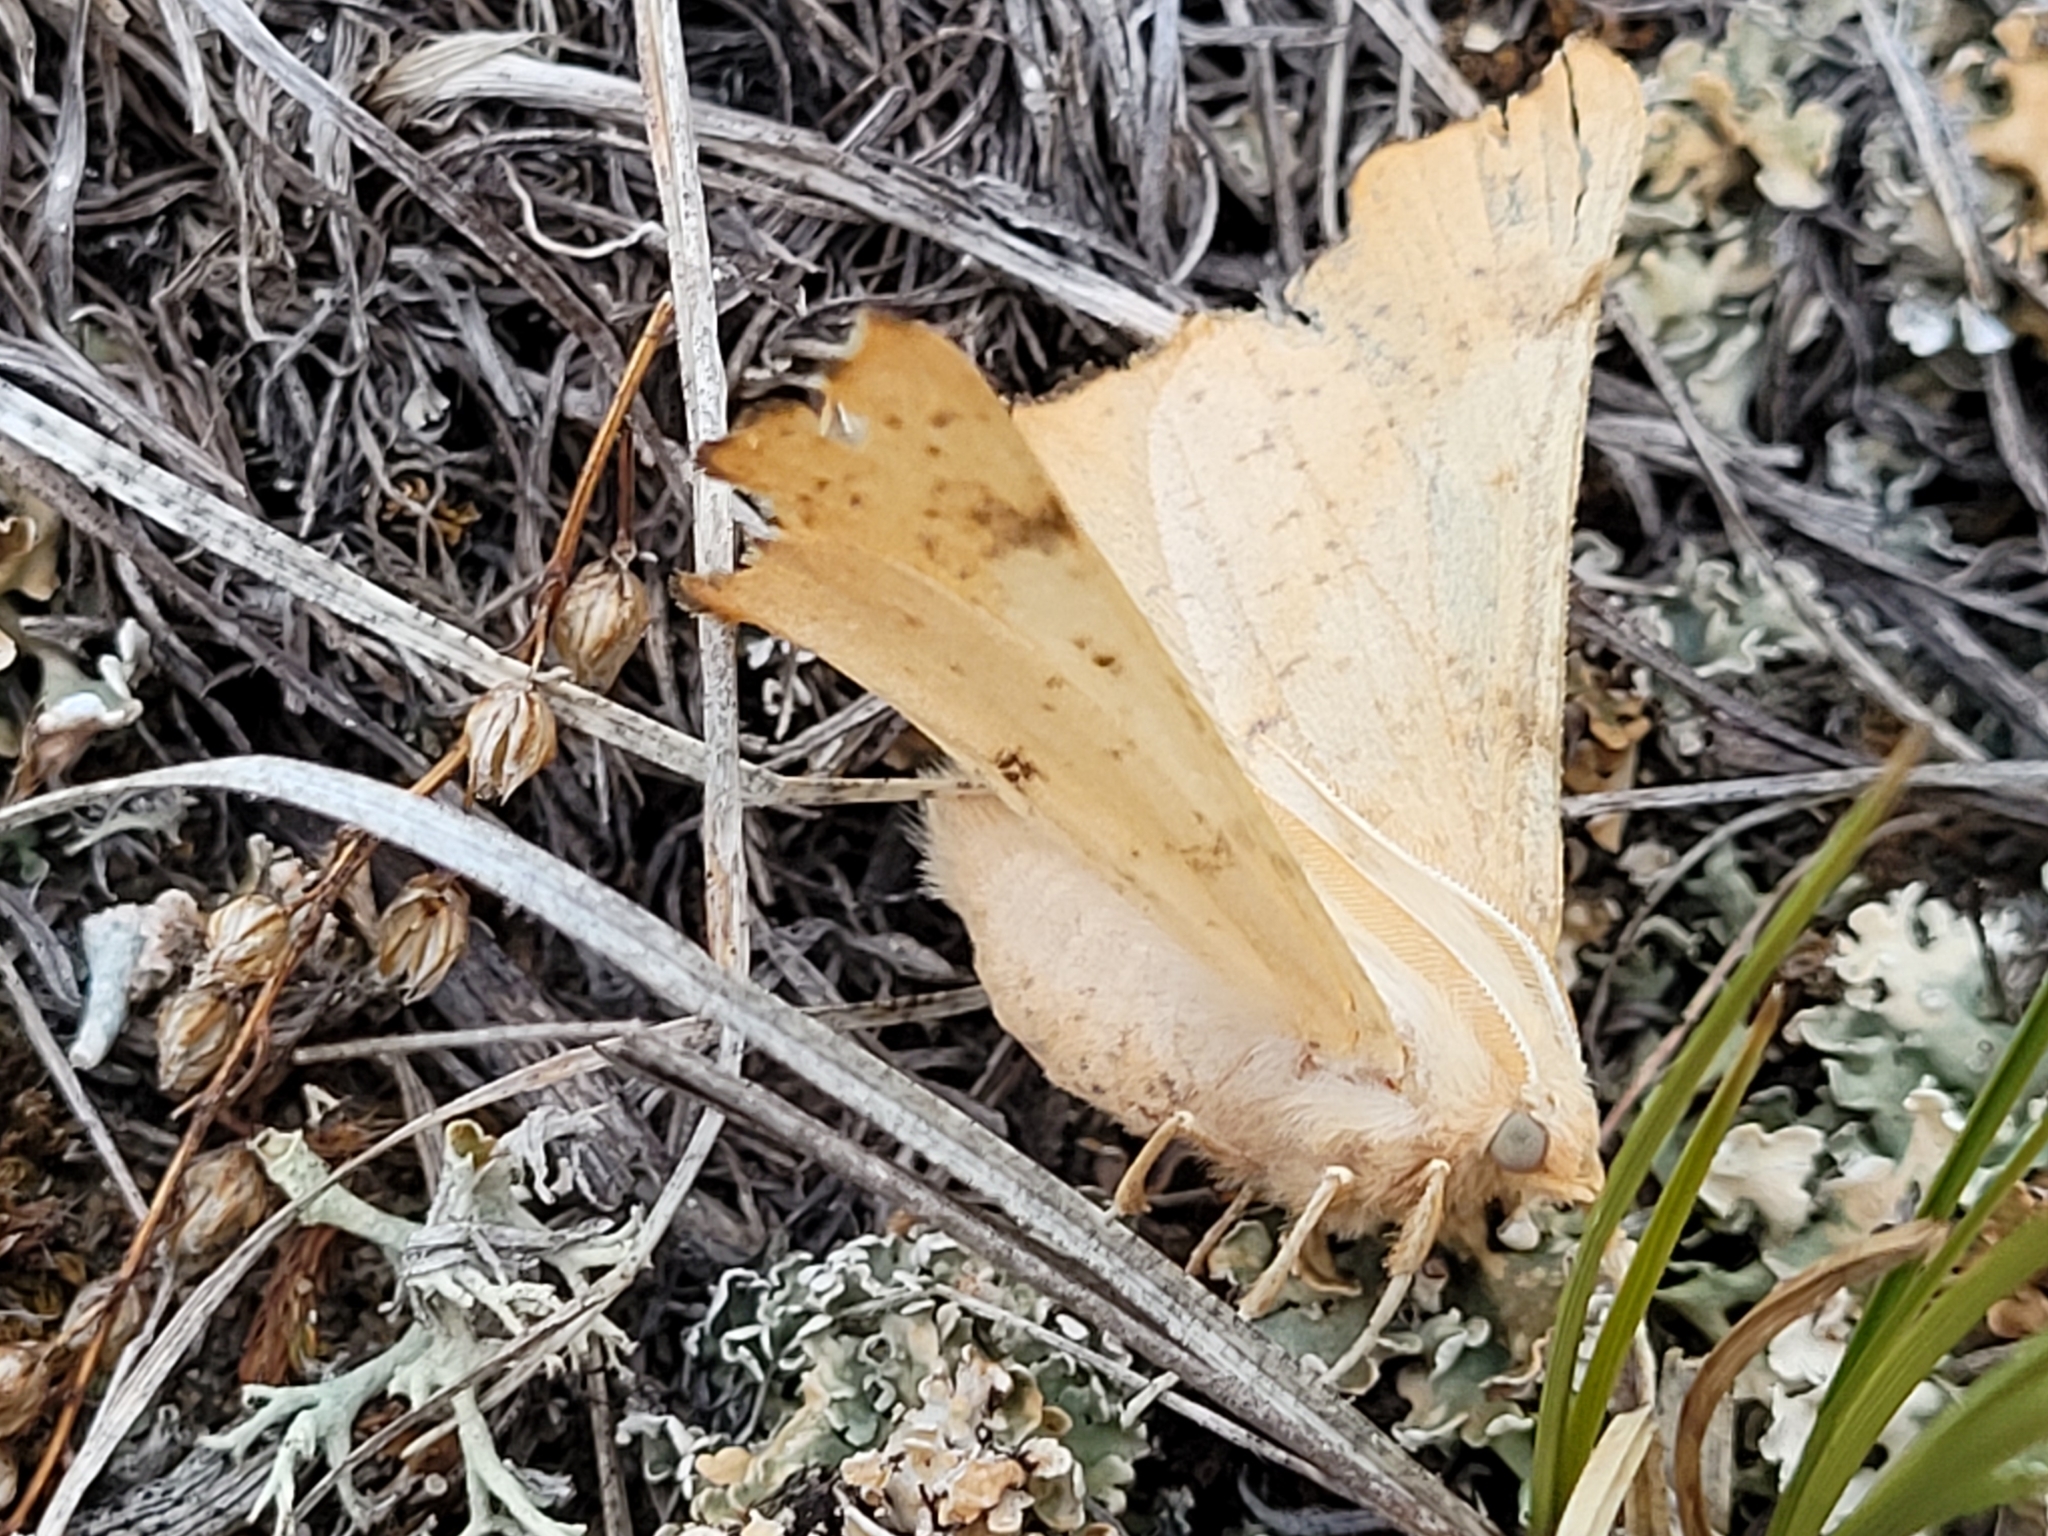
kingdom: Animalia
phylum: Arthropoda
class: Insecta
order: Lepidoptera
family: Geometridae
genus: Ennomos
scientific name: Ennomos magnaria
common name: Maple spanworm
